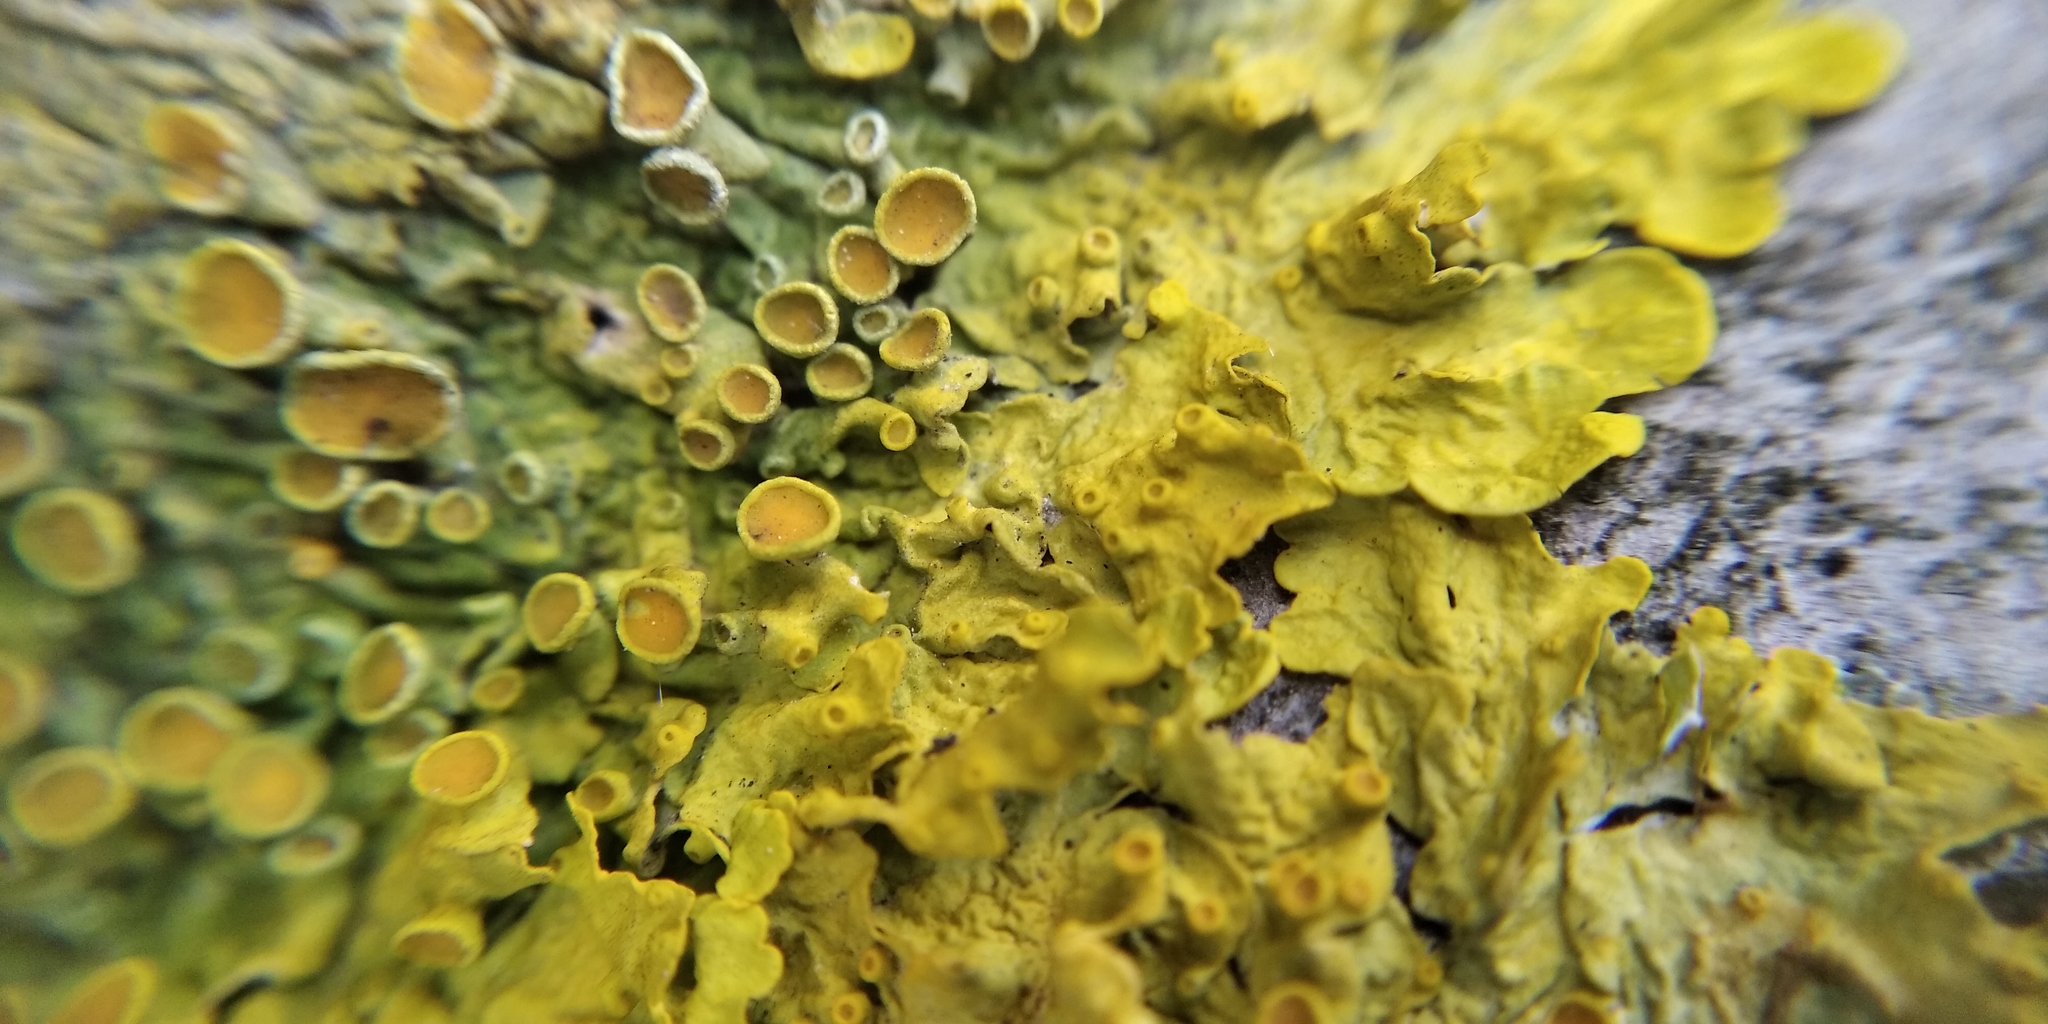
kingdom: Fungi
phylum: Ascomycota
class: Lecanoromycetes
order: Teloschistales
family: Teloschistaceae
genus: Xanthoria
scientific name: Xanthoria parietina
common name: Common orange lichen
